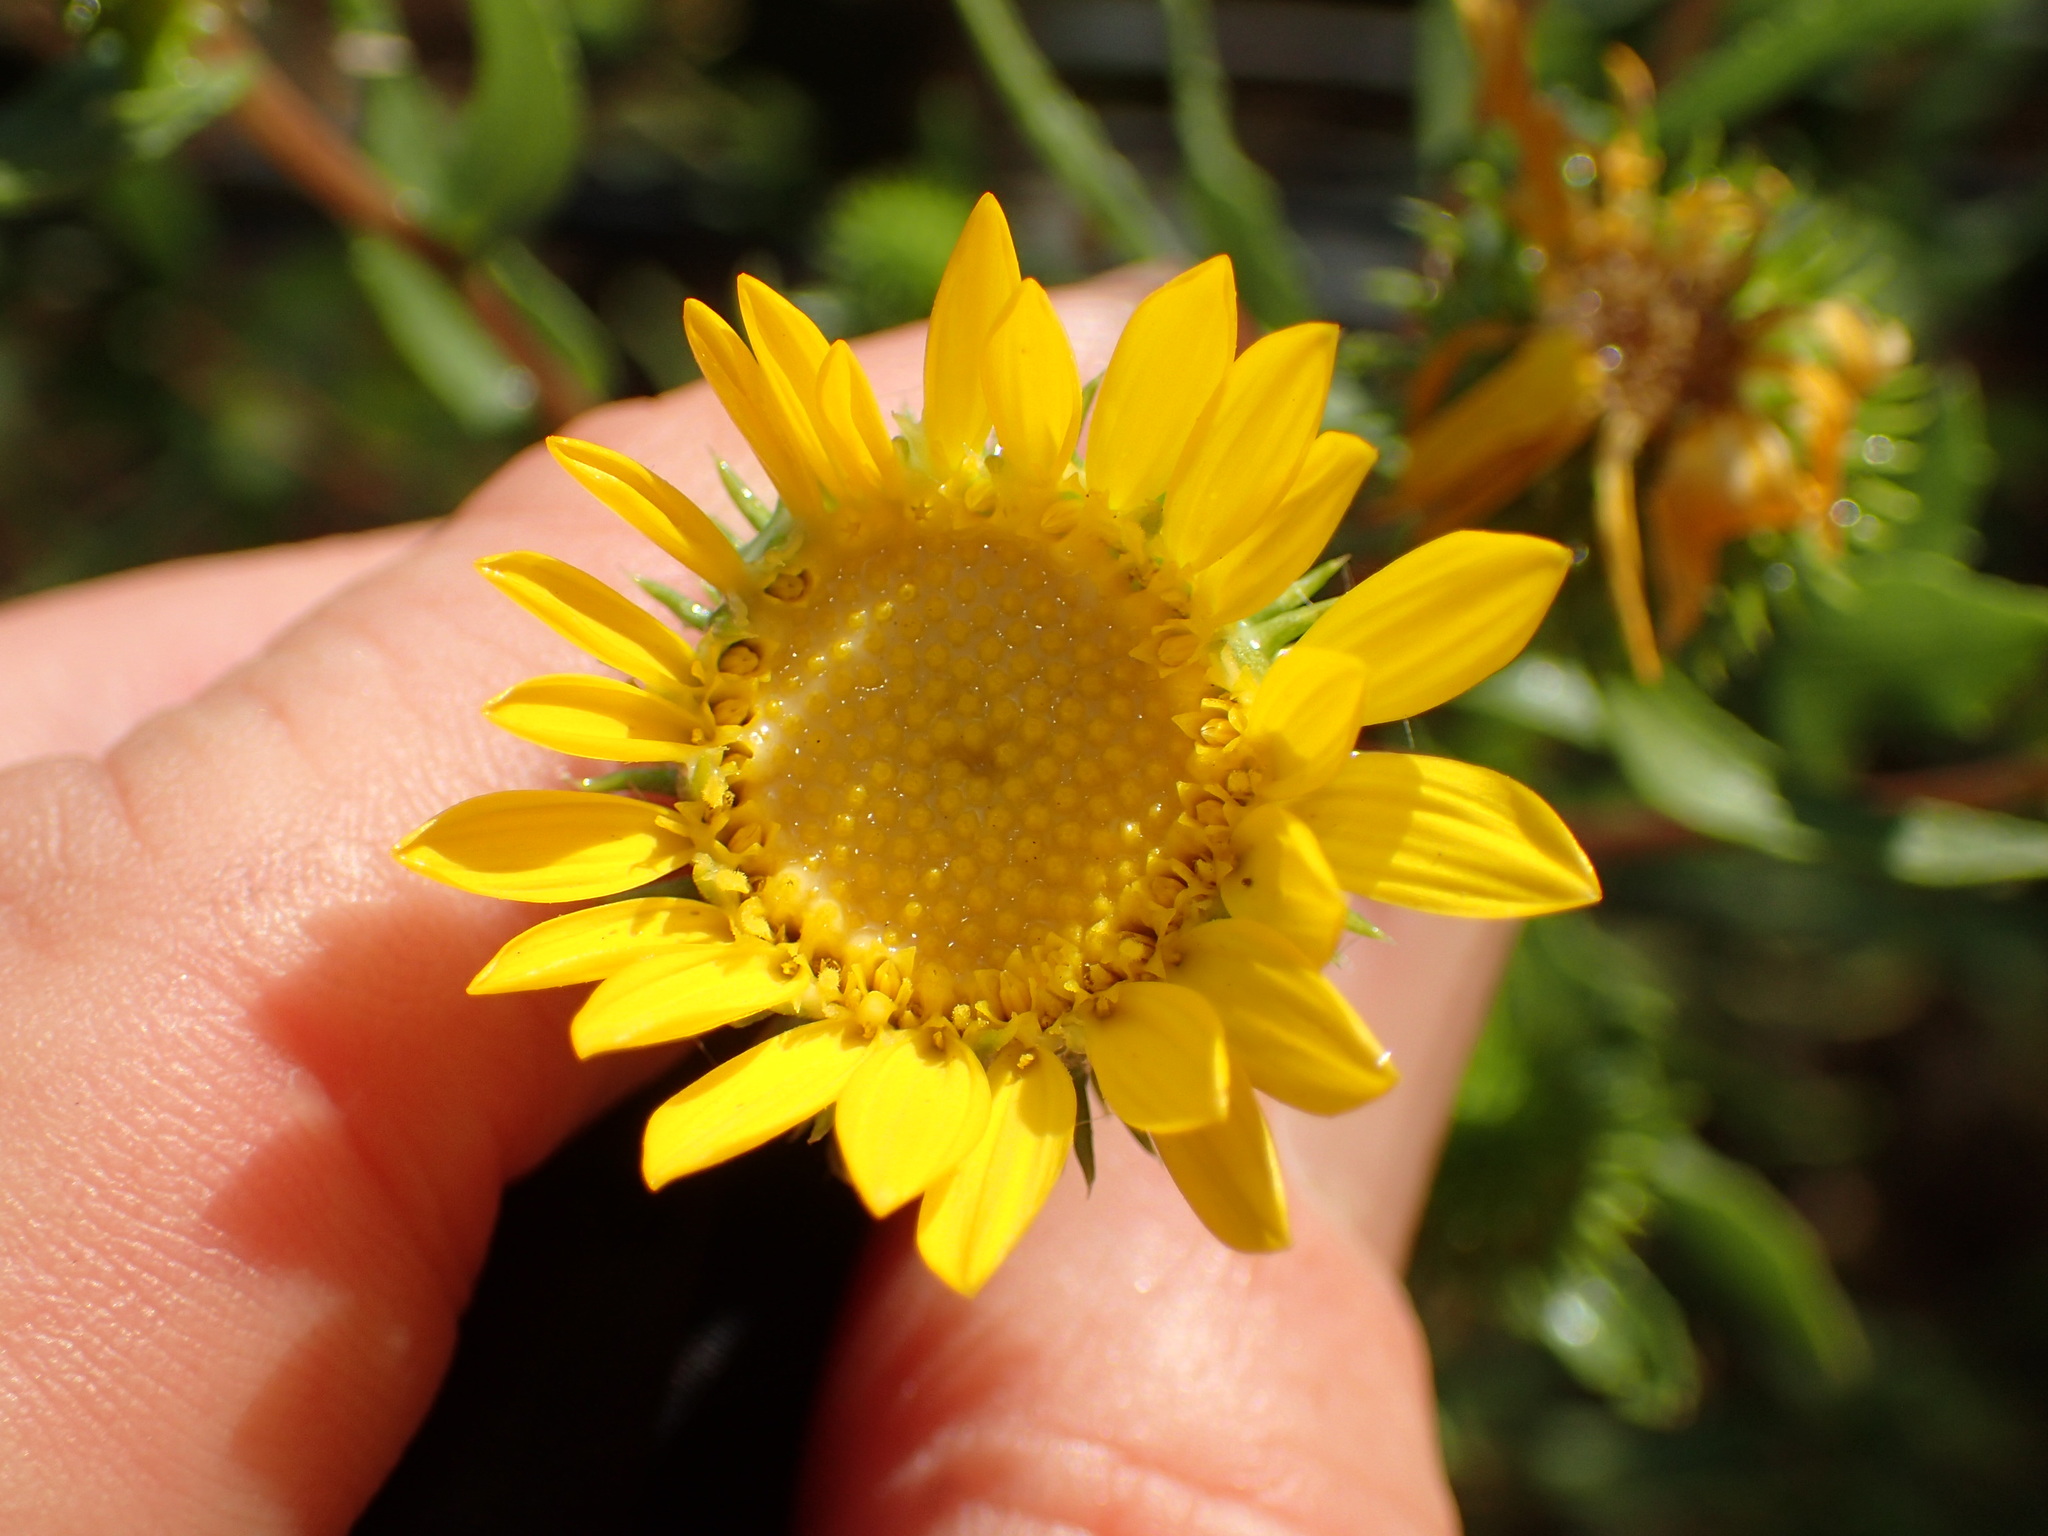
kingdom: Plantae
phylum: Tracheophyta
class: Magnoliopsida
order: Asterales
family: Asteraceae
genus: Grindelia
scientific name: Grindelia hirsutula
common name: Hairy gumweed
